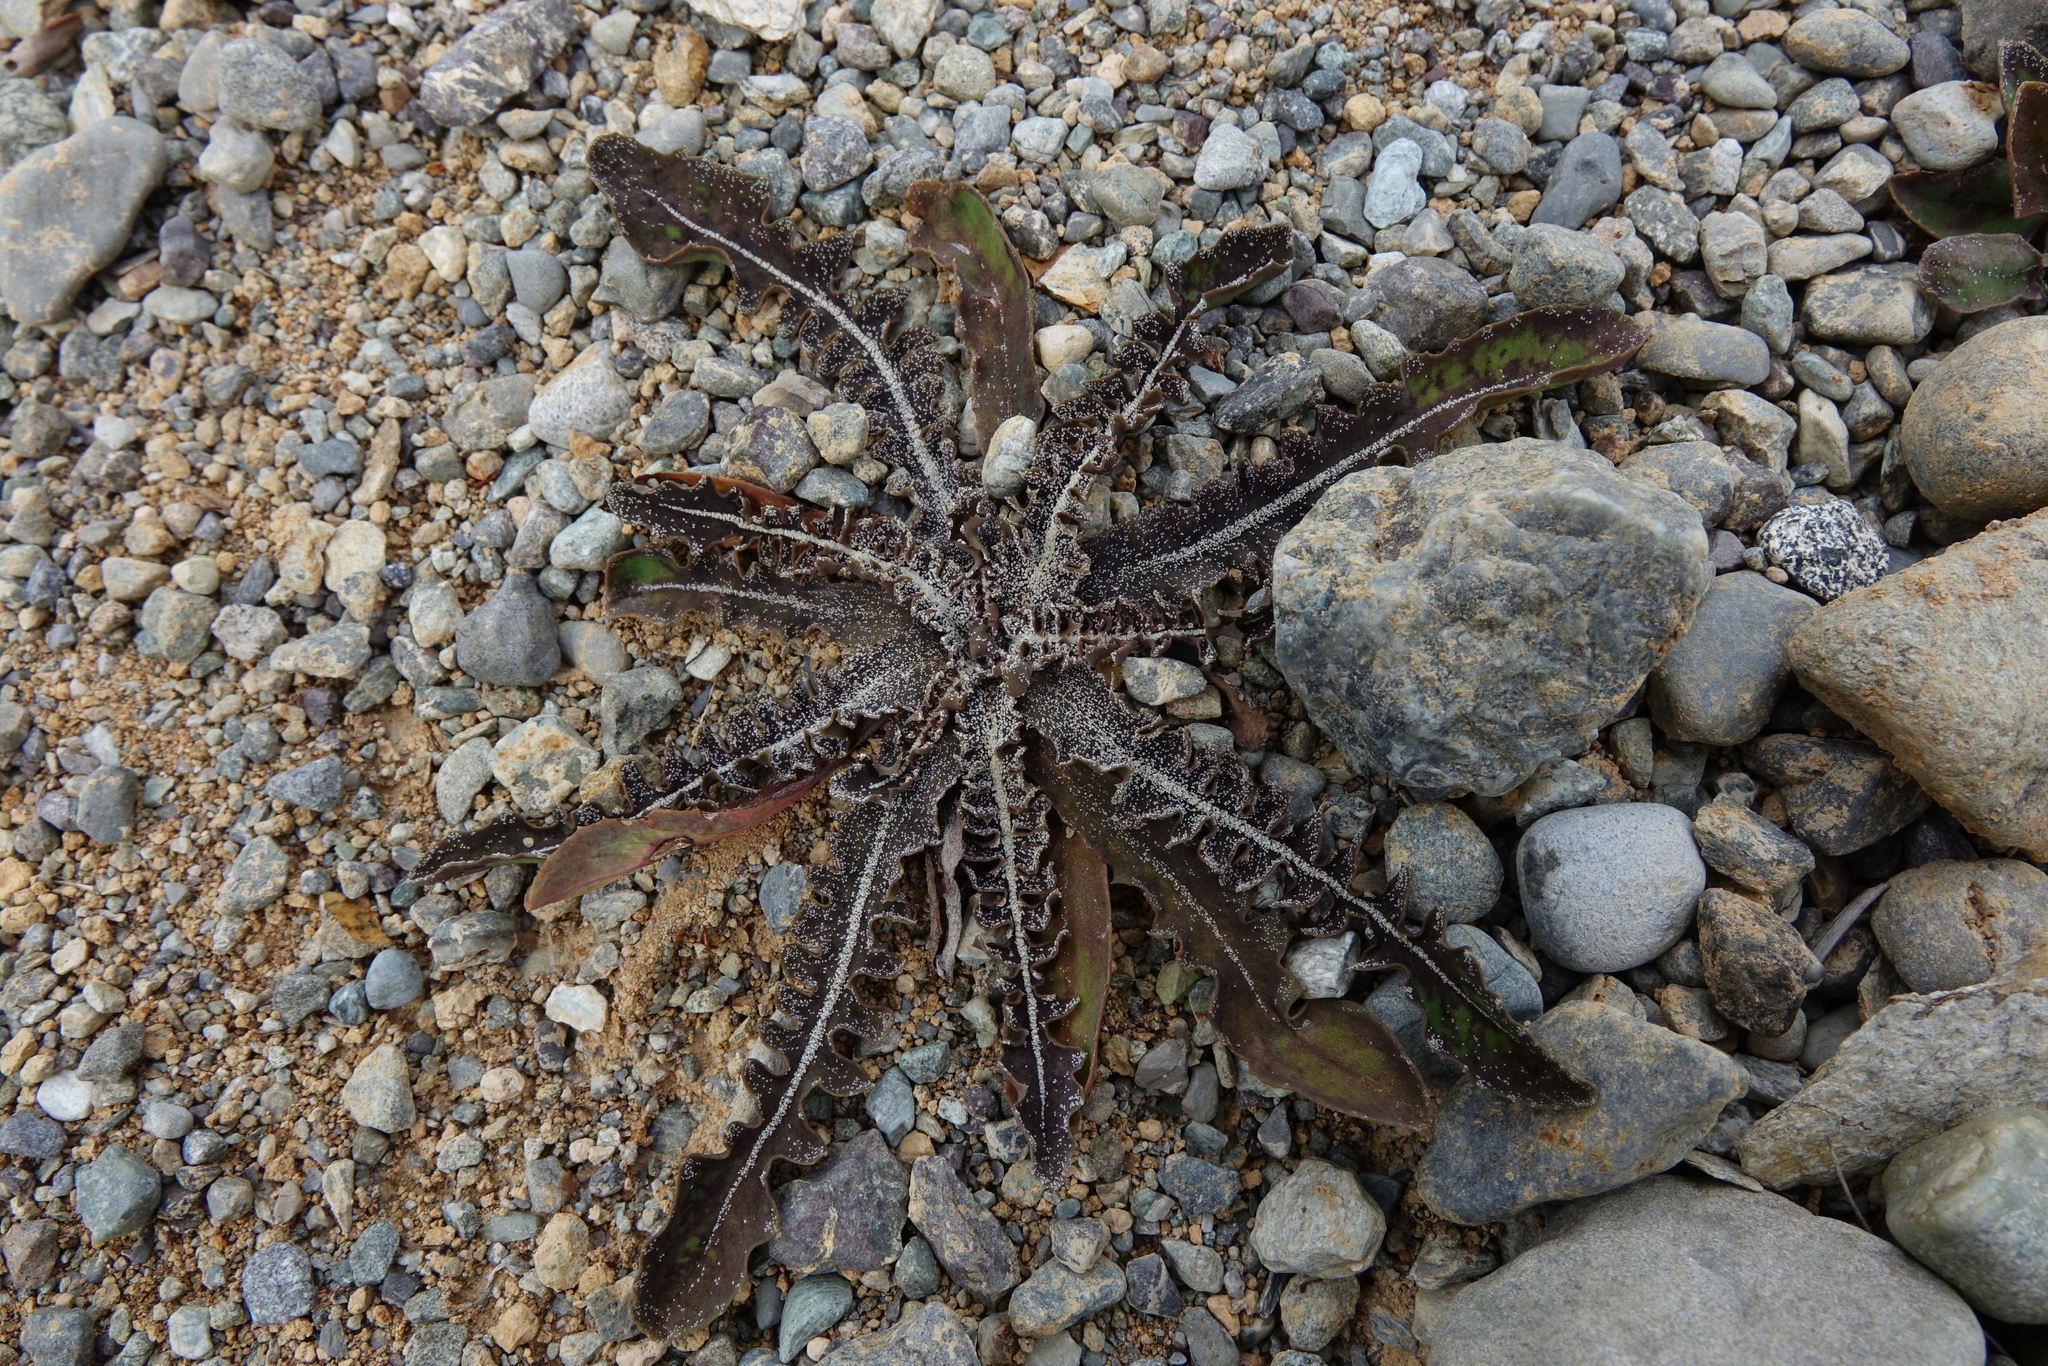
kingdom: Plantae
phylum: Tracheophyta
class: Magnoliopsida
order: Asterales
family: Asteraceae
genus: Sonchus
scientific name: Sonchus novae-zelandiae
